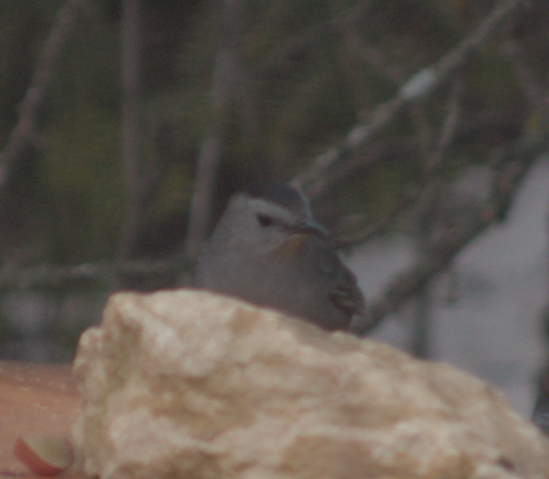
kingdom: Animalia
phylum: Chordata
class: Aves
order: Passeriformes
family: Mimidae
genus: Dumetella
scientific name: Dumetella carolinensis
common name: Gray catbird
